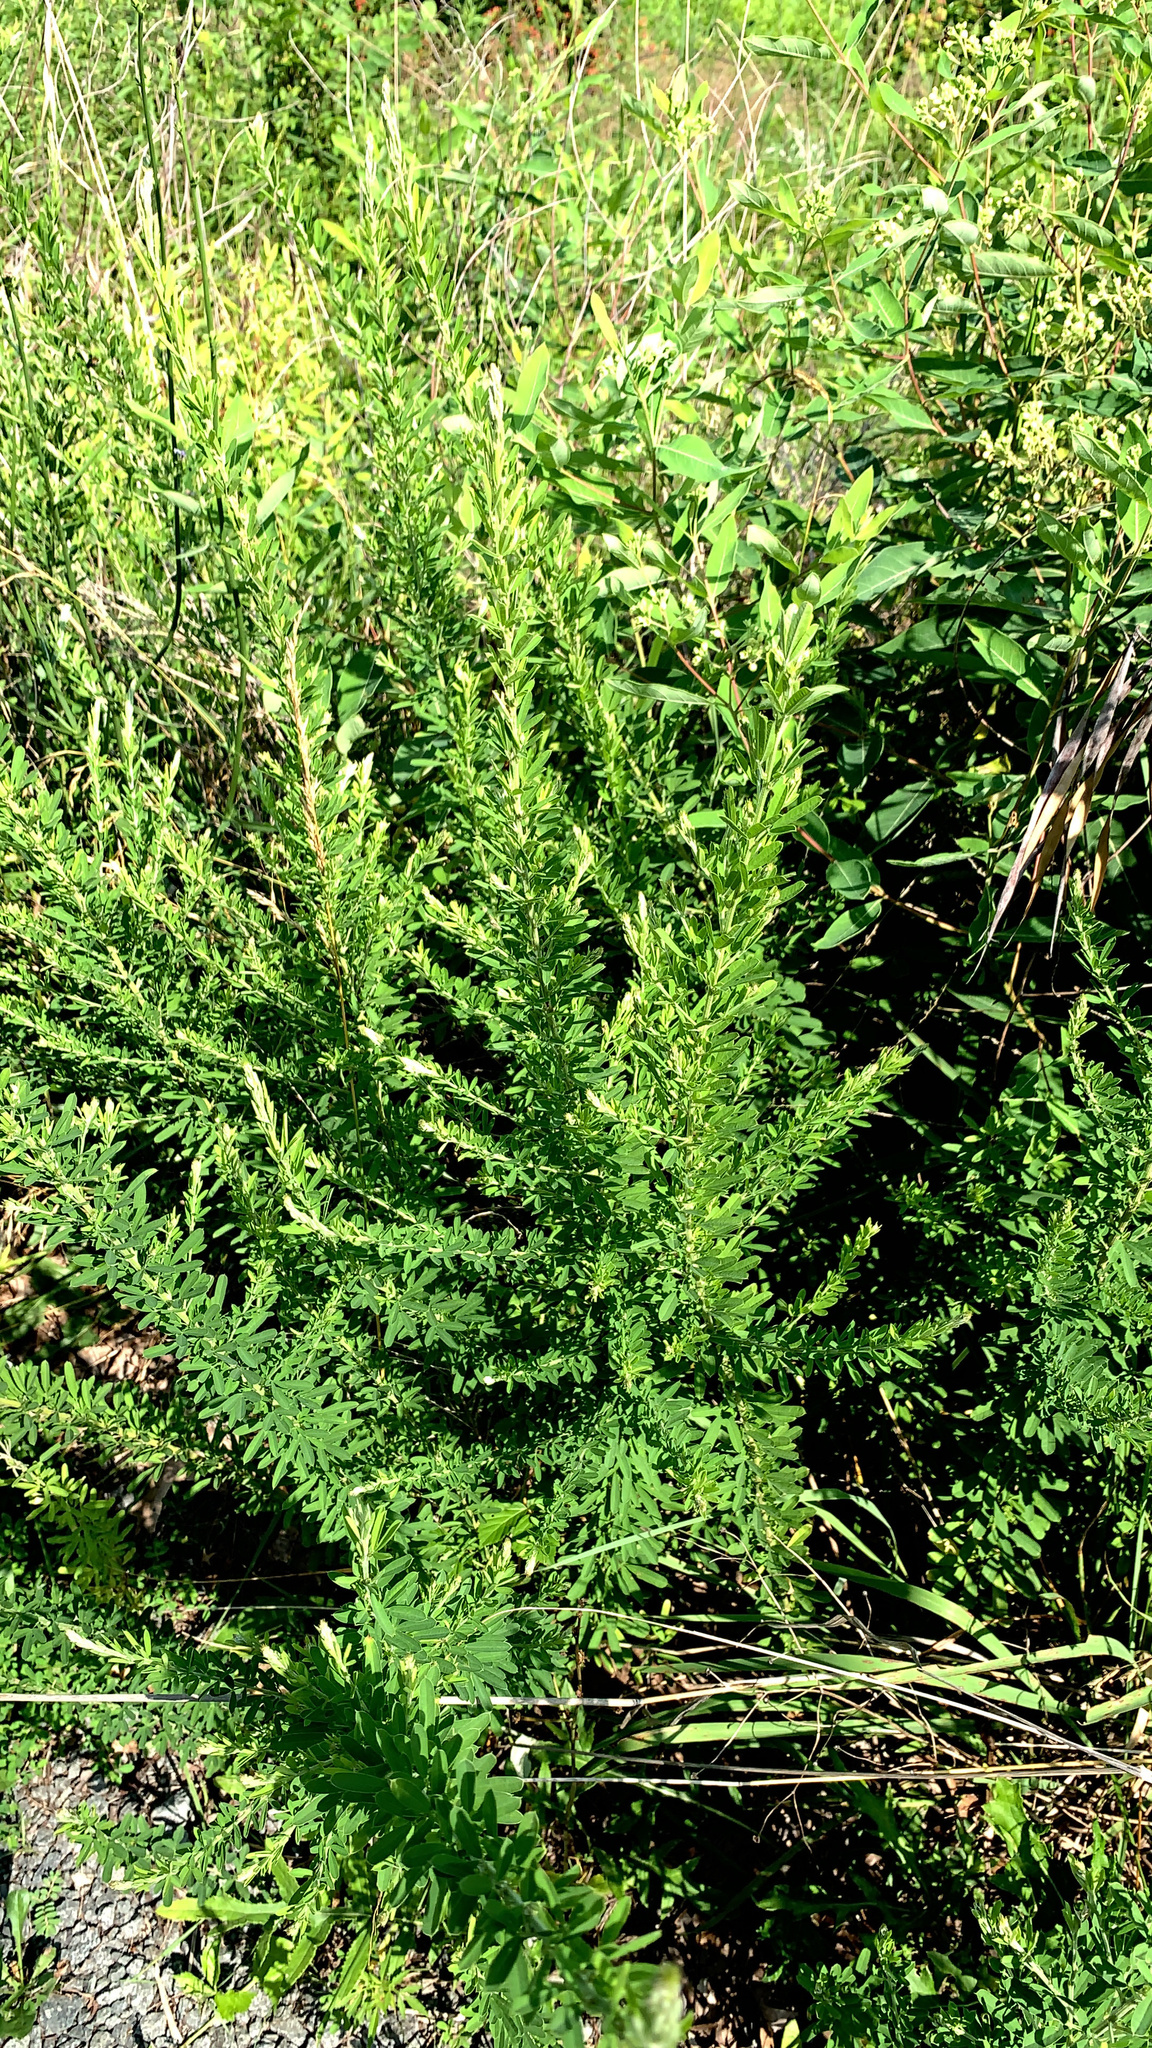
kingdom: Plantae
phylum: Tracheophyta
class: Magnoliopsida
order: Fabales
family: Fabaceae
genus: Lespedeza
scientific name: Lespedeza cuneata
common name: Chinese bush-clover
